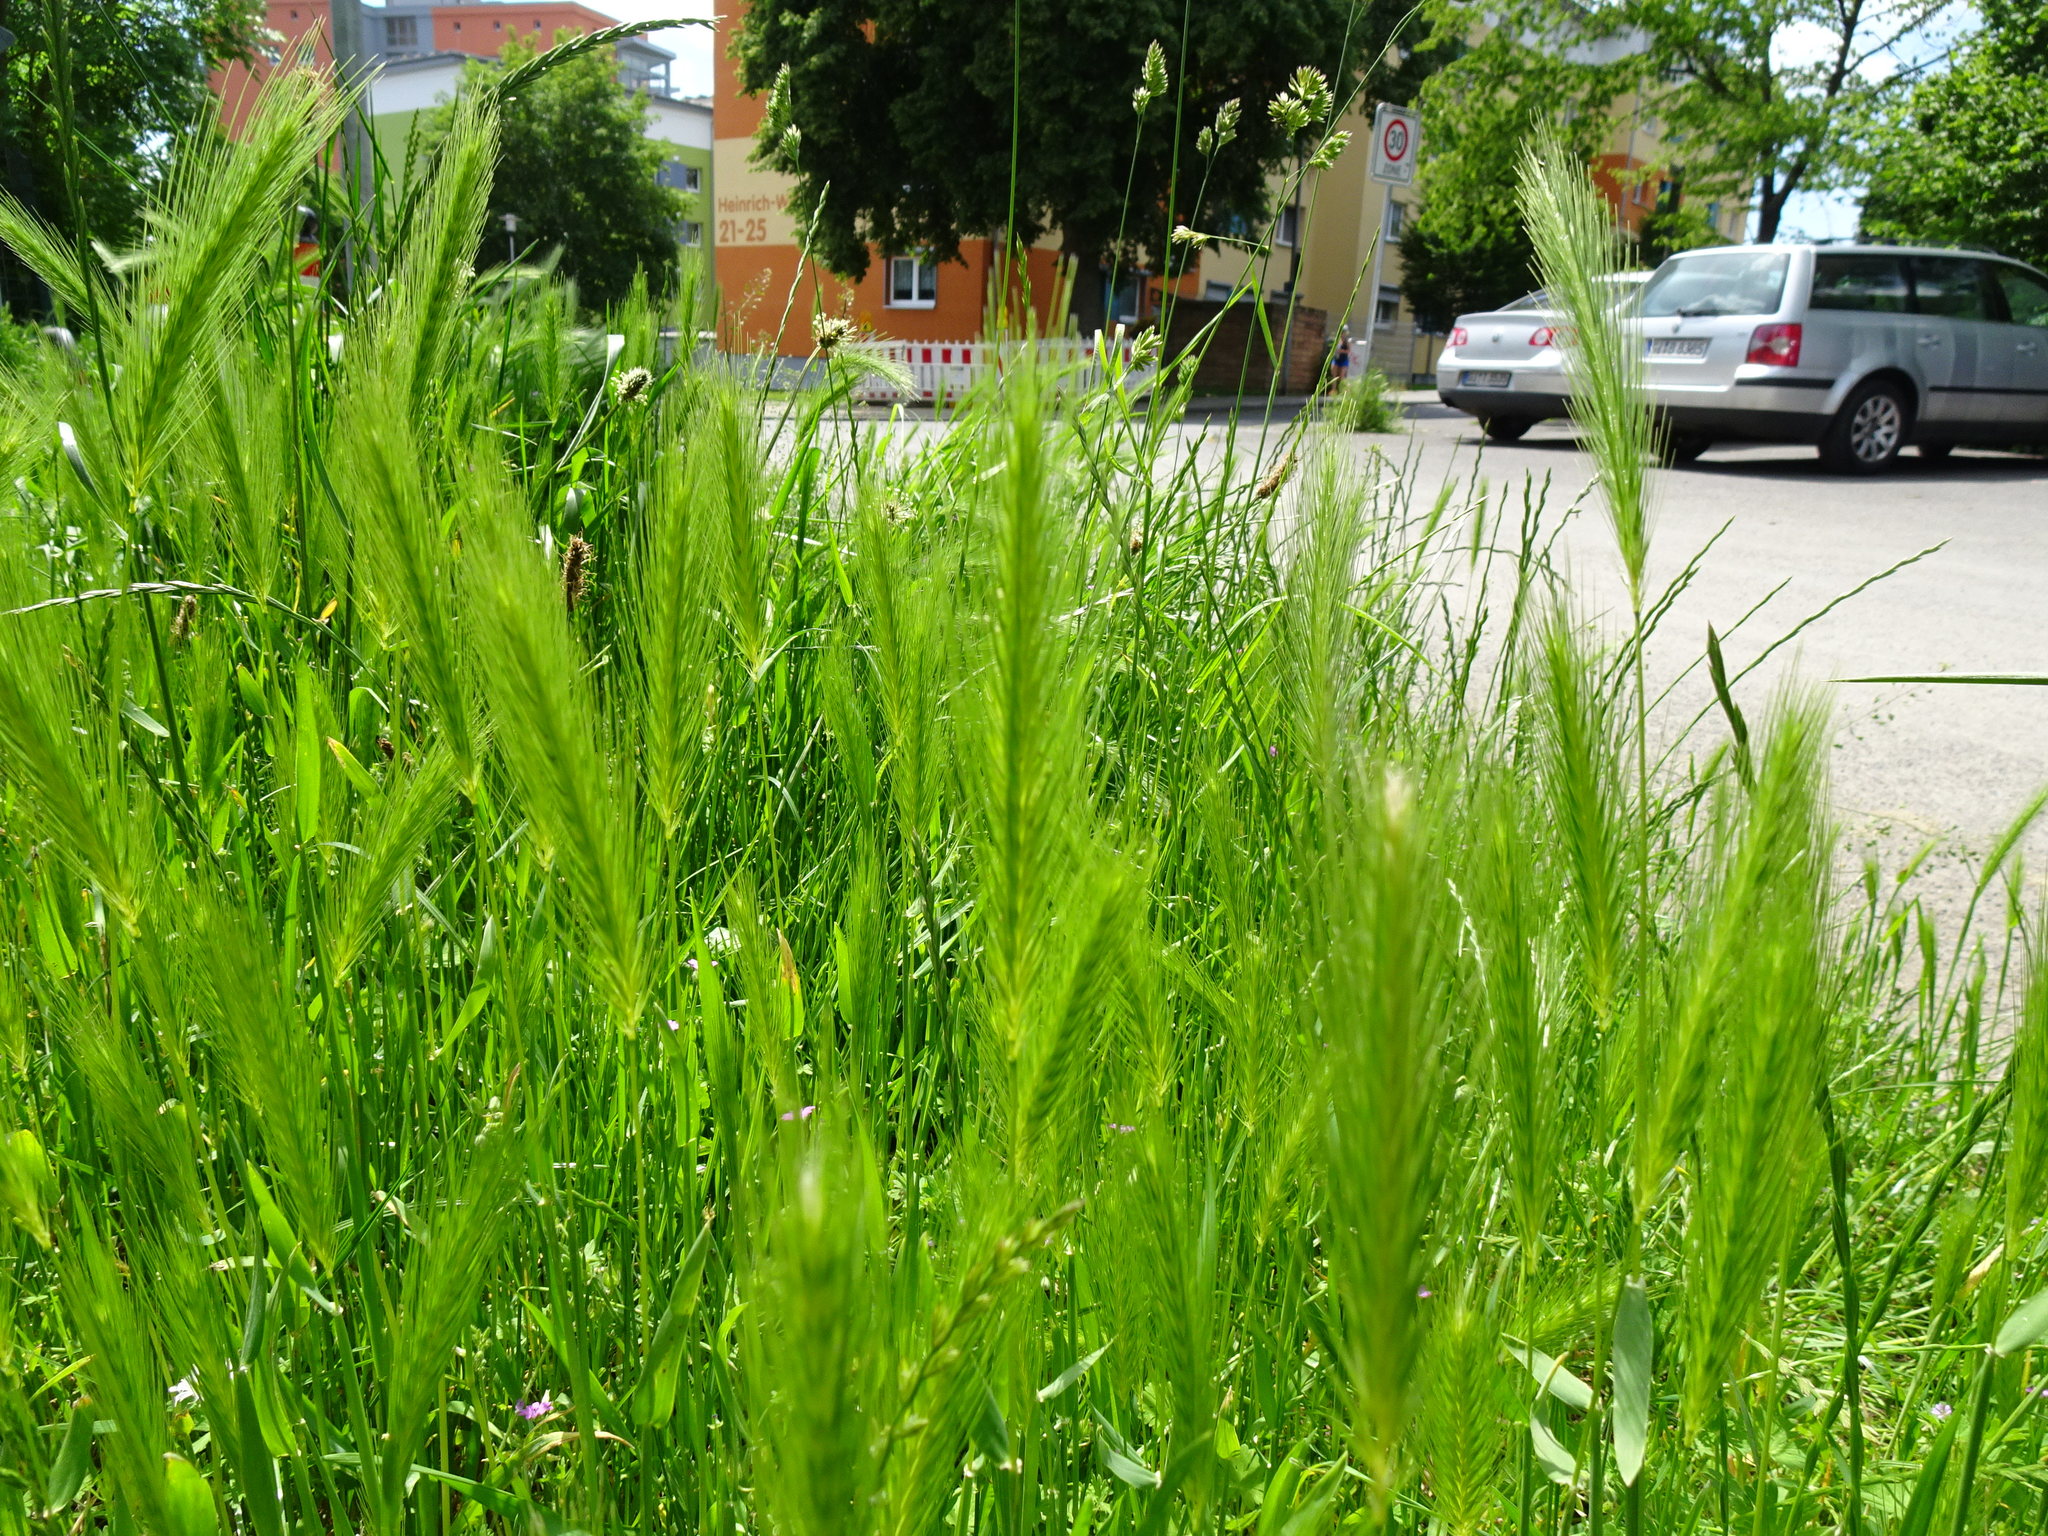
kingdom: Plantae
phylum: Tracheophyta
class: Liliopsida
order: Poales
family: Poaceae
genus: Hordeum
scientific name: Hordeum murinum
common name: Wall barley
